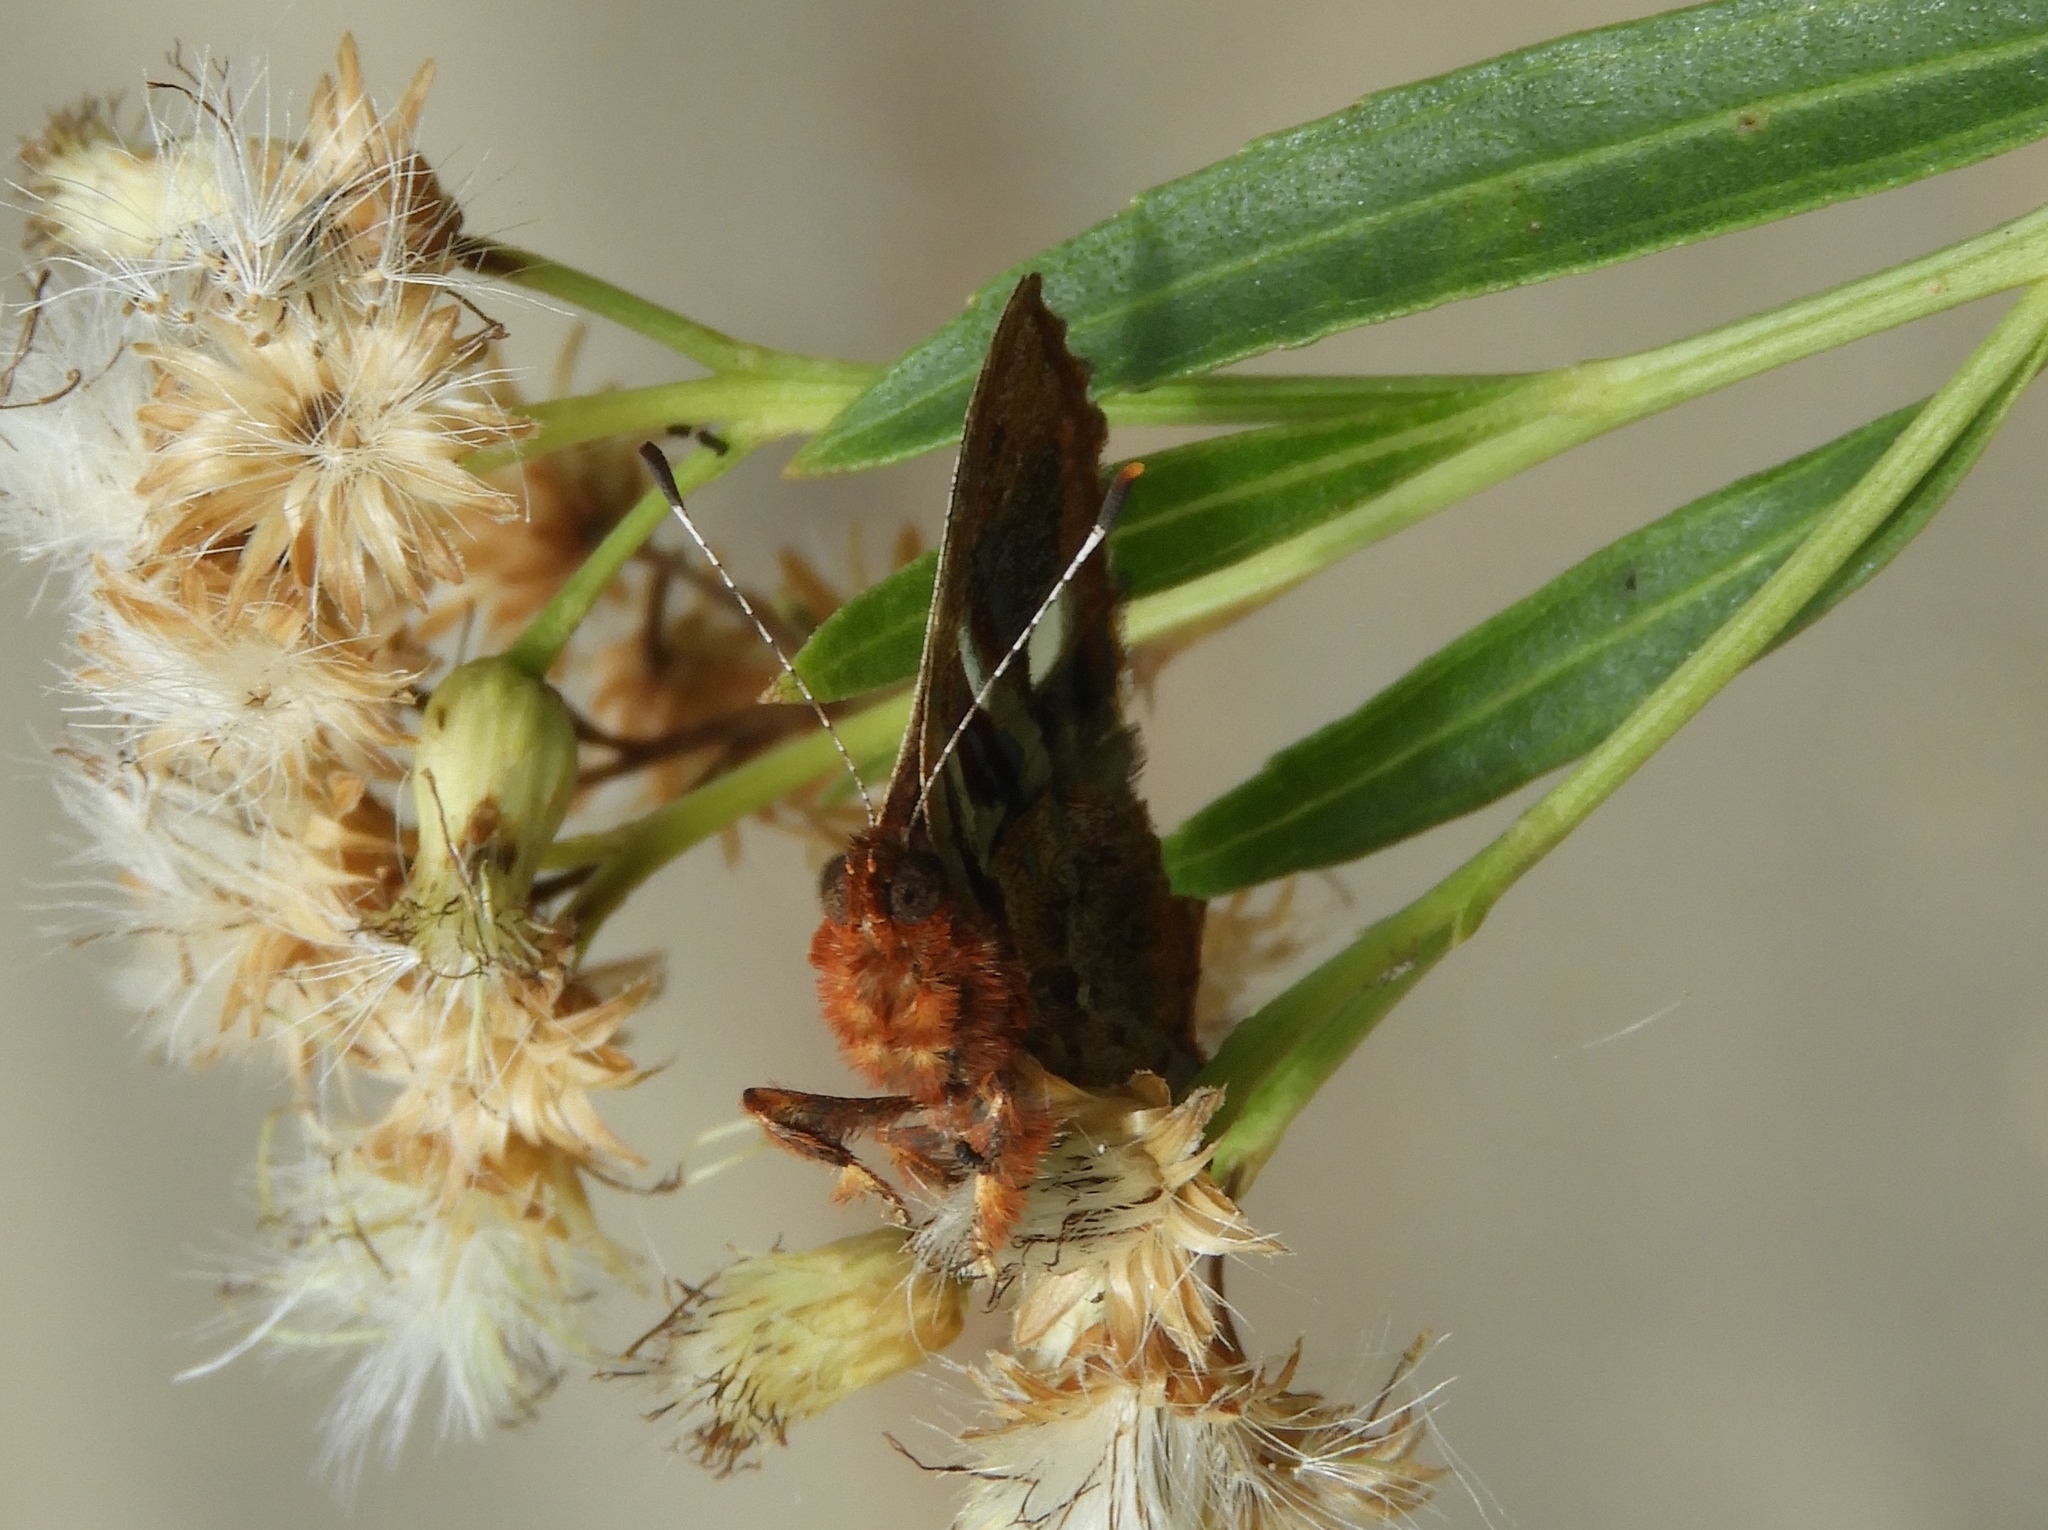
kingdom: Animalia
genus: Anteros
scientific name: Anteros carausius
